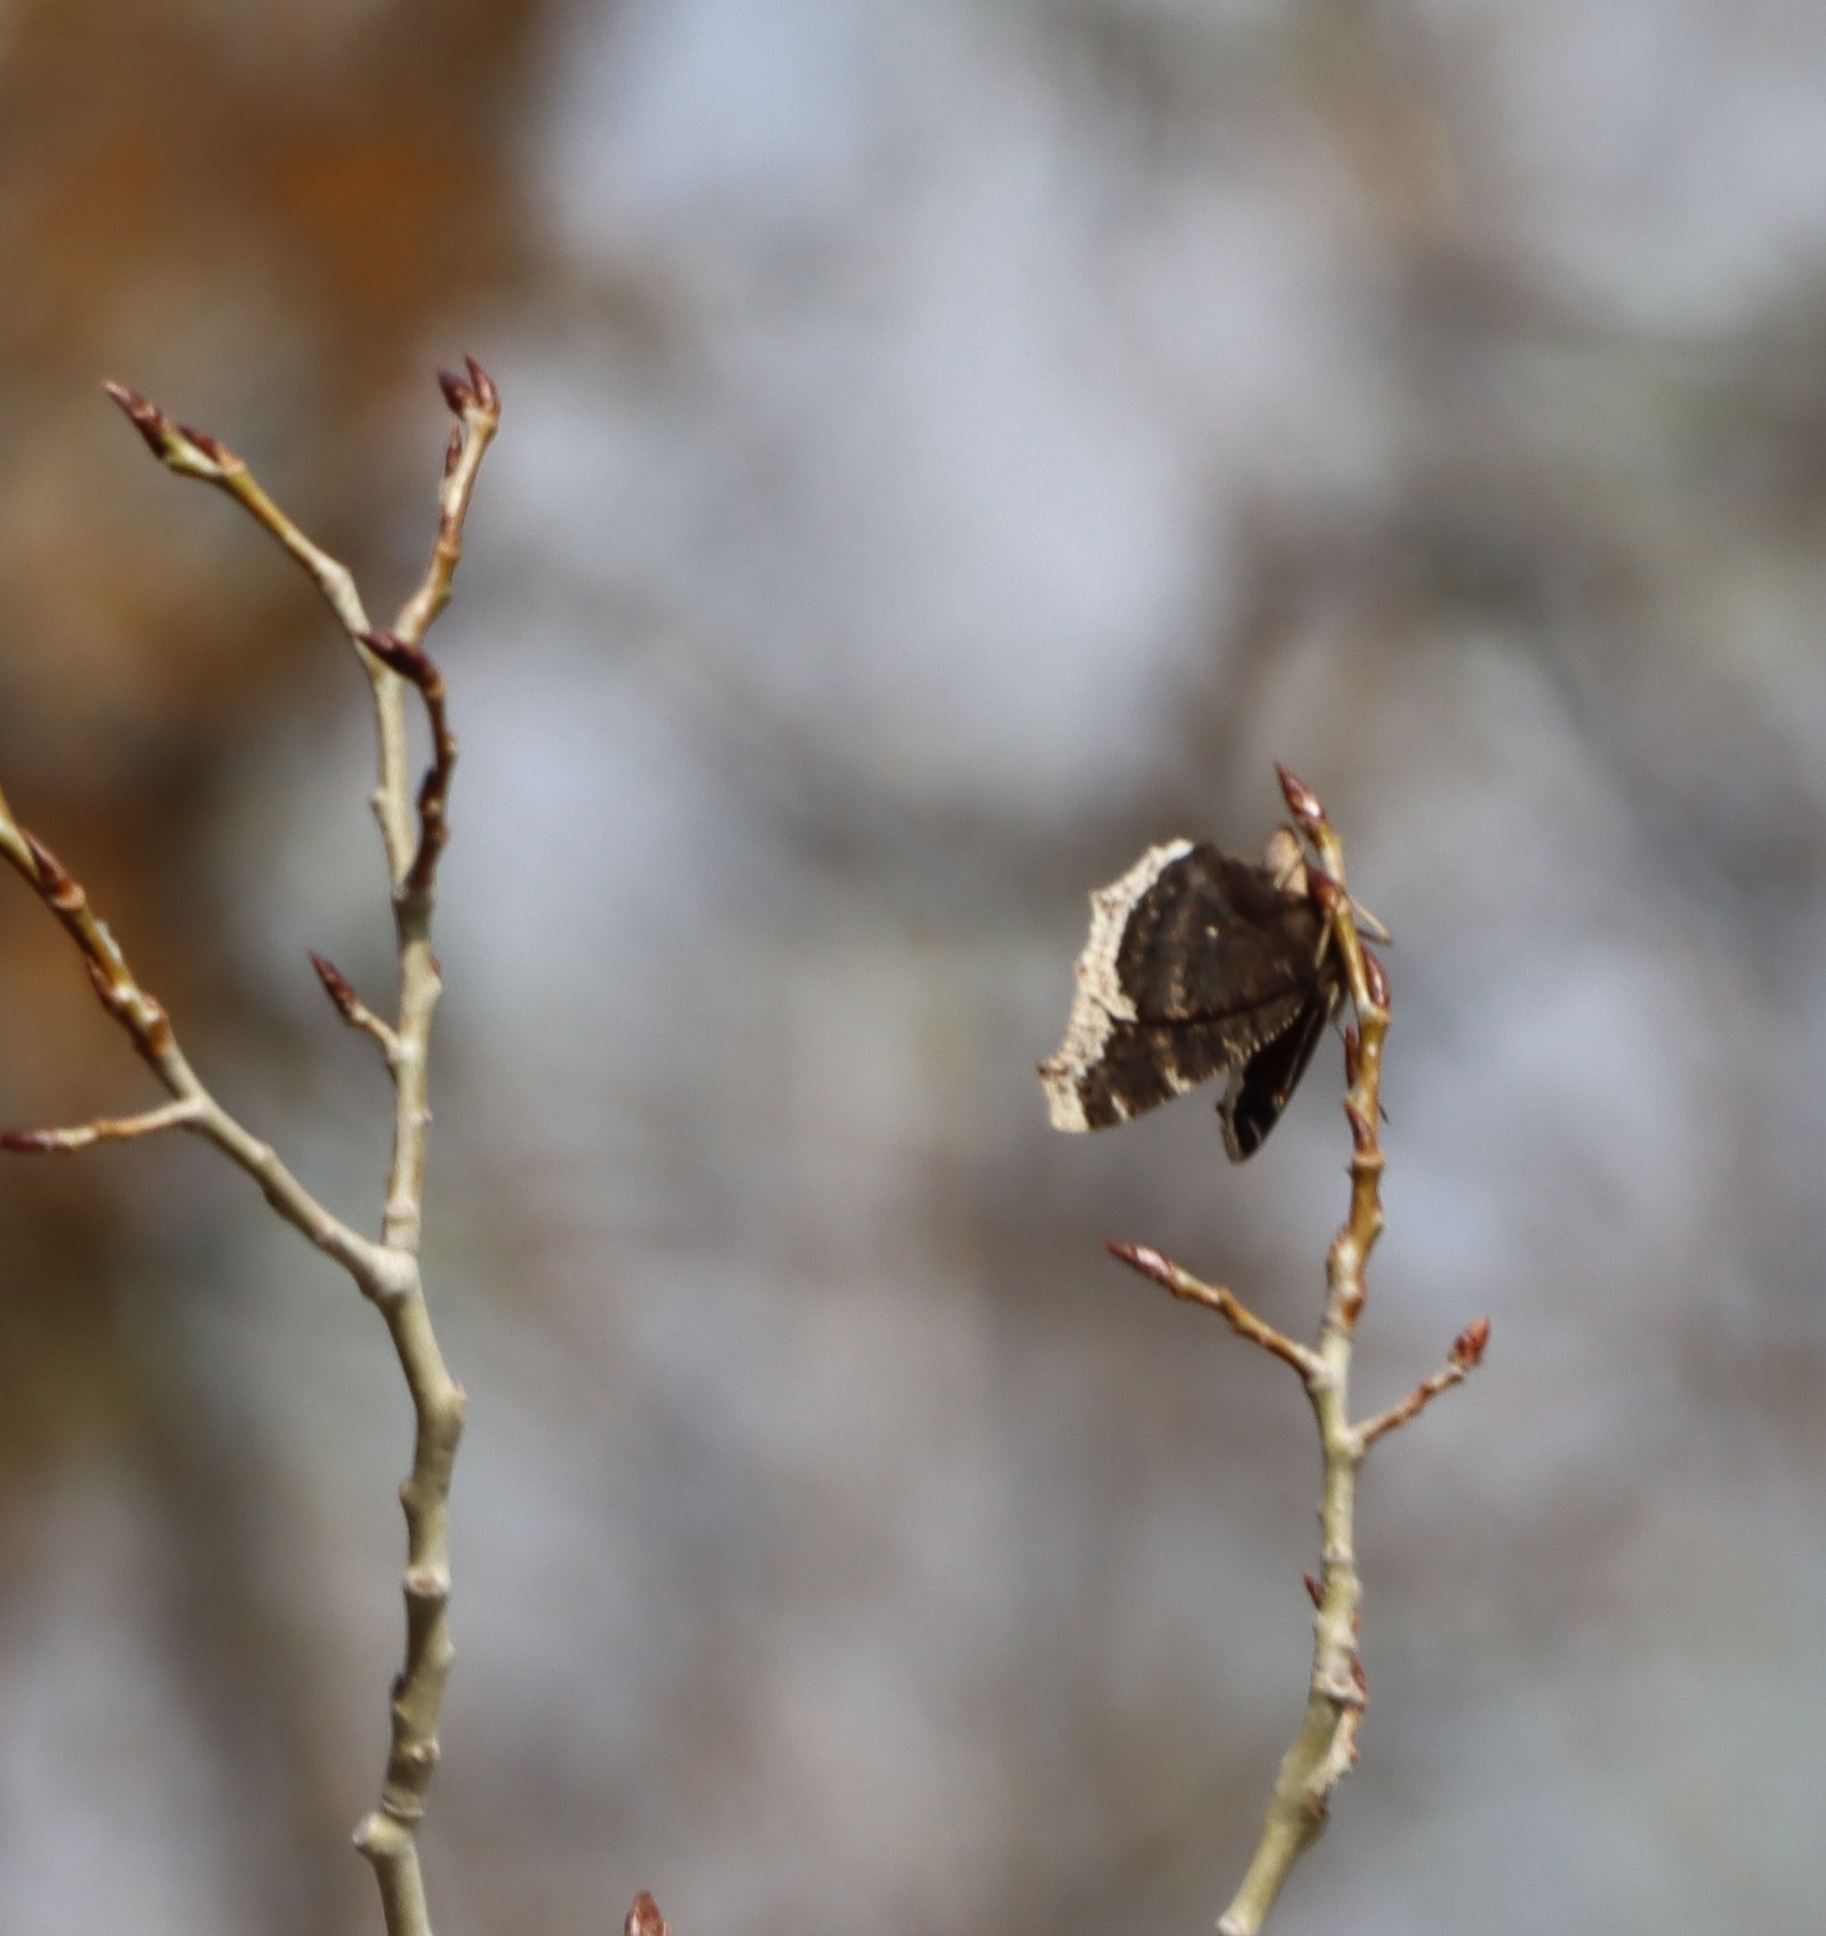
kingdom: Animalia
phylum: Arthropoda
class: Insecta
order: Lepidoptera
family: Nymphalidae
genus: Nymphalis
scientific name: Nymphalis antiopa
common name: Camberwell beauty
